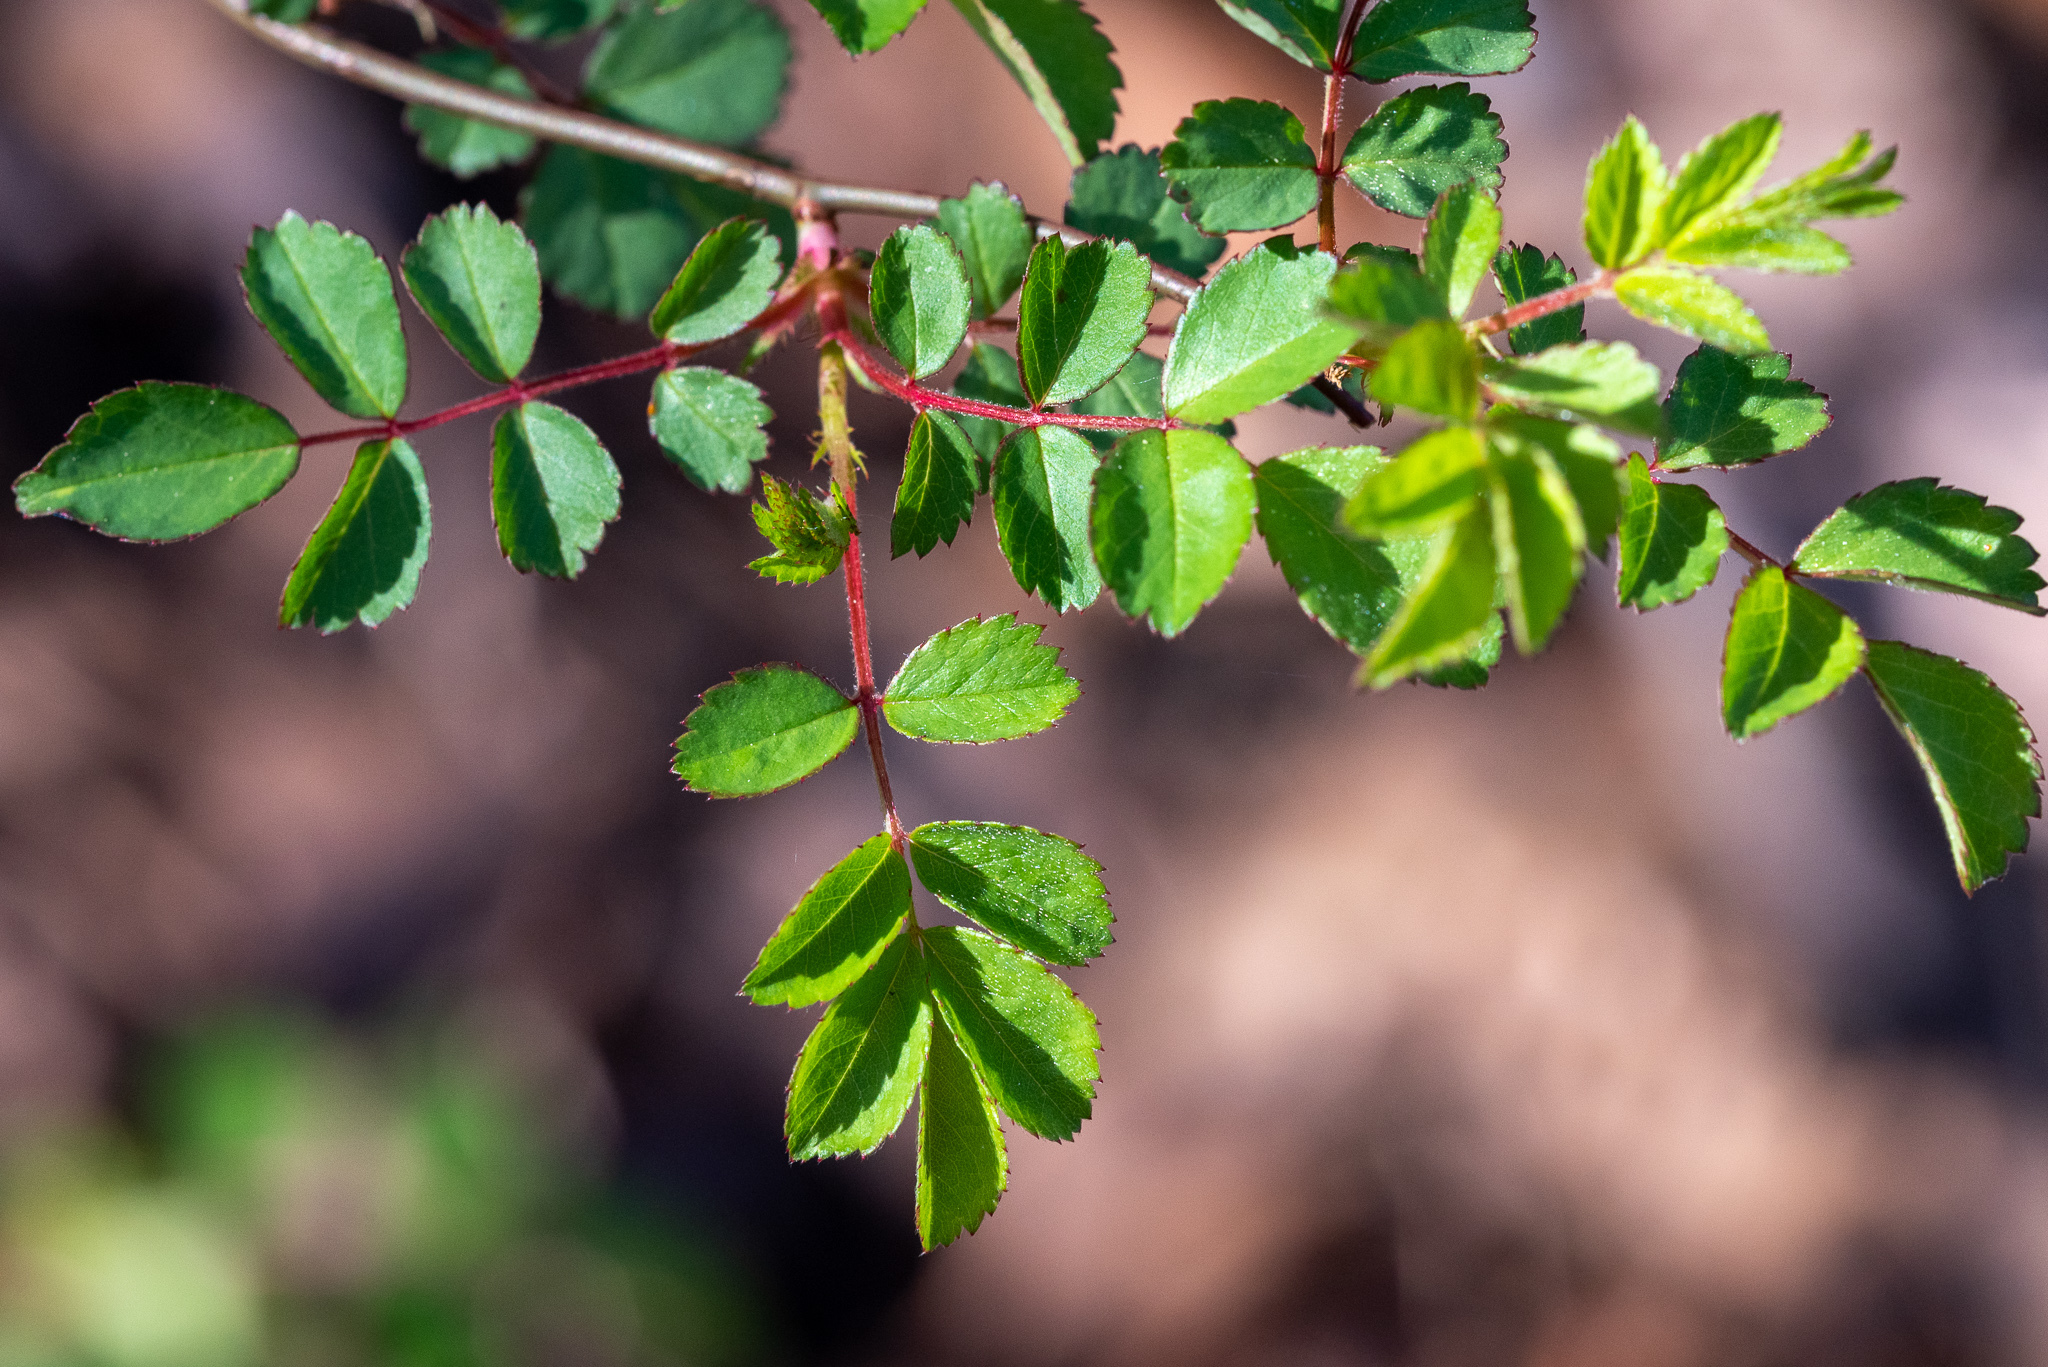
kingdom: Plantae
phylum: Tracheophyta
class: Magnoliopsida
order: Rosales
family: Rosaceae
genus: Rosa
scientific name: Rosa multiflora
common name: Multiflora rose
